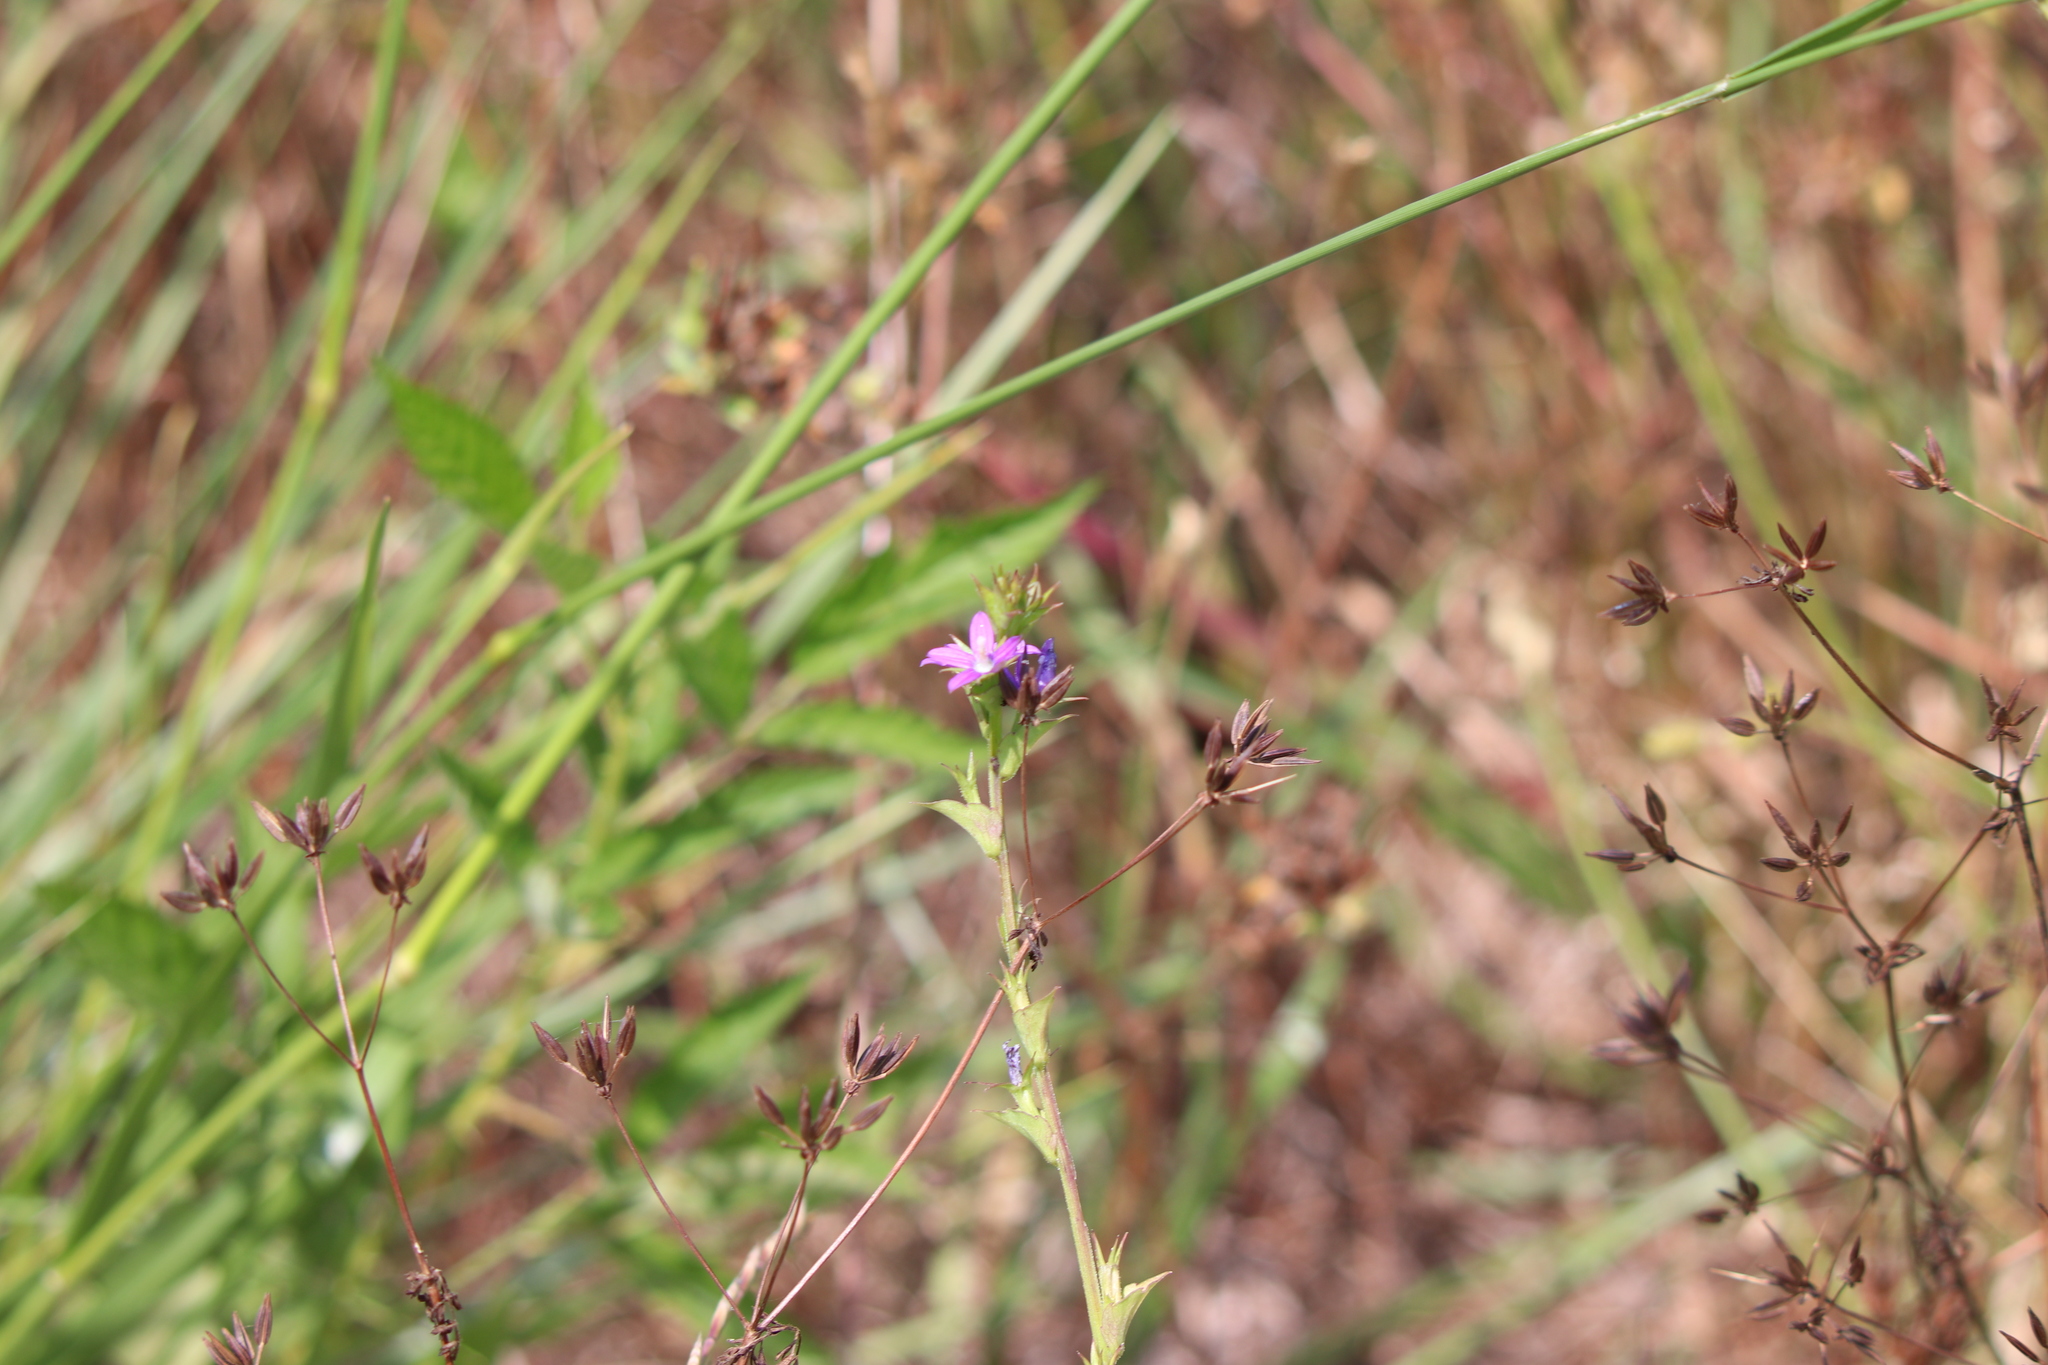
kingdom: Plantae
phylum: Tracheophyta
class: Magnoliopsida
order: Asterales
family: Campanulaceae
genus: Triodanis
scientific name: Triodanis biflora
